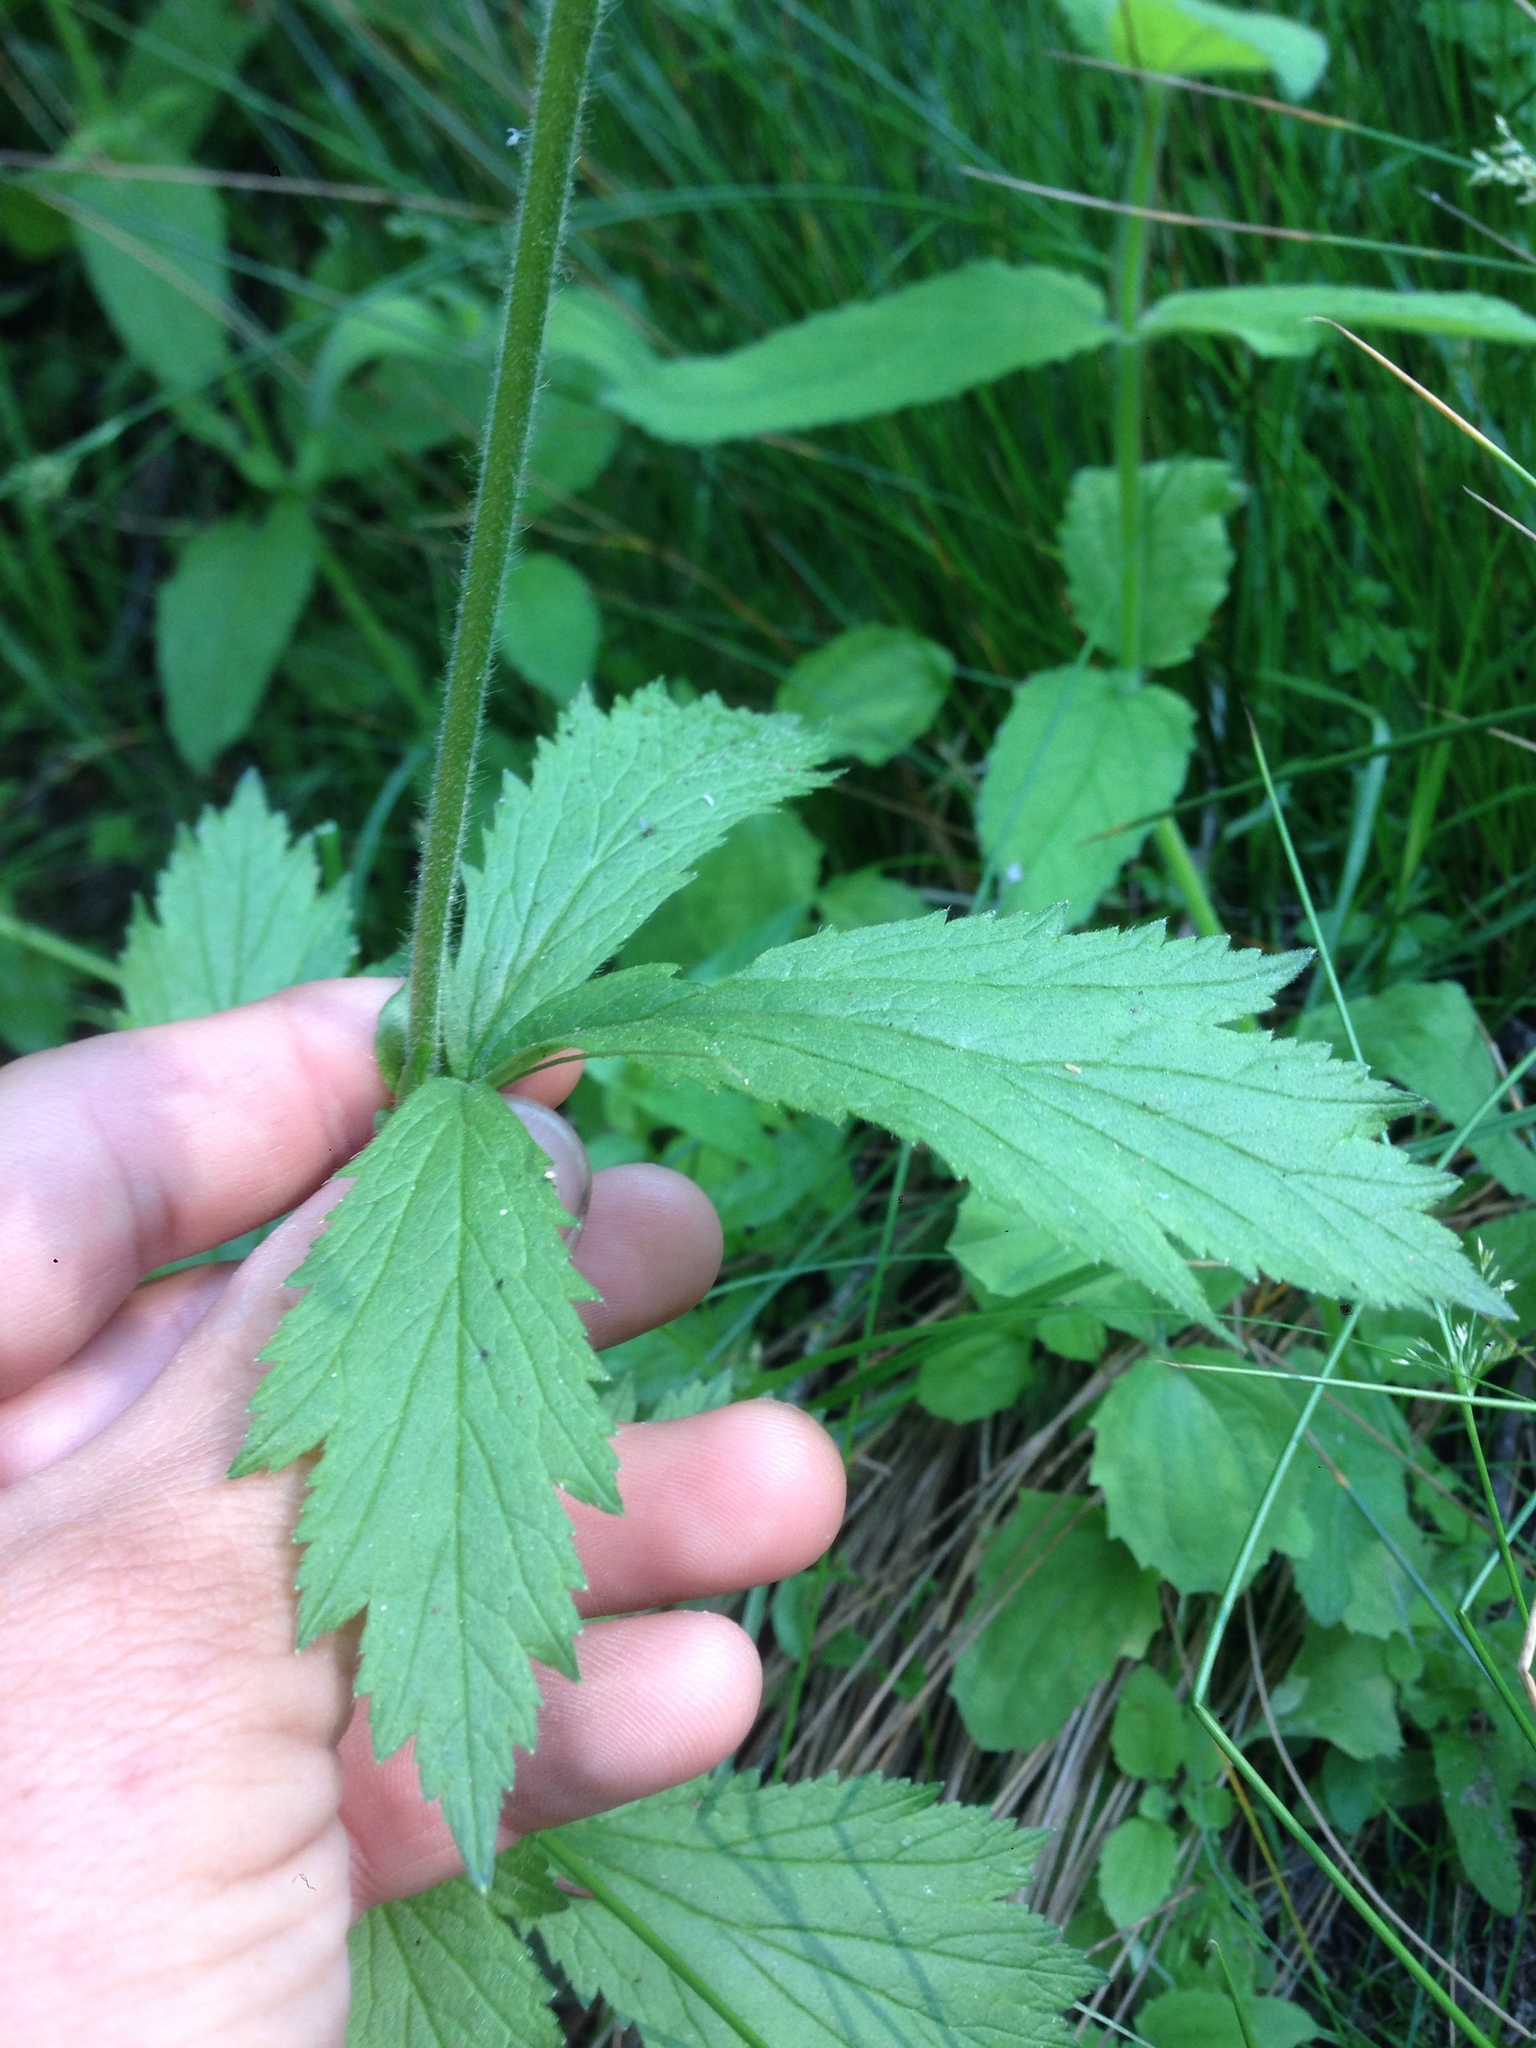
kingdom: Plantae
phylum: Tracheophyta
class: Magnoliopsida
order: Rosales
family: Rosaceae
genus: Geum
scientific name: Geum macrophyllum
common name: Large-leaved avens
